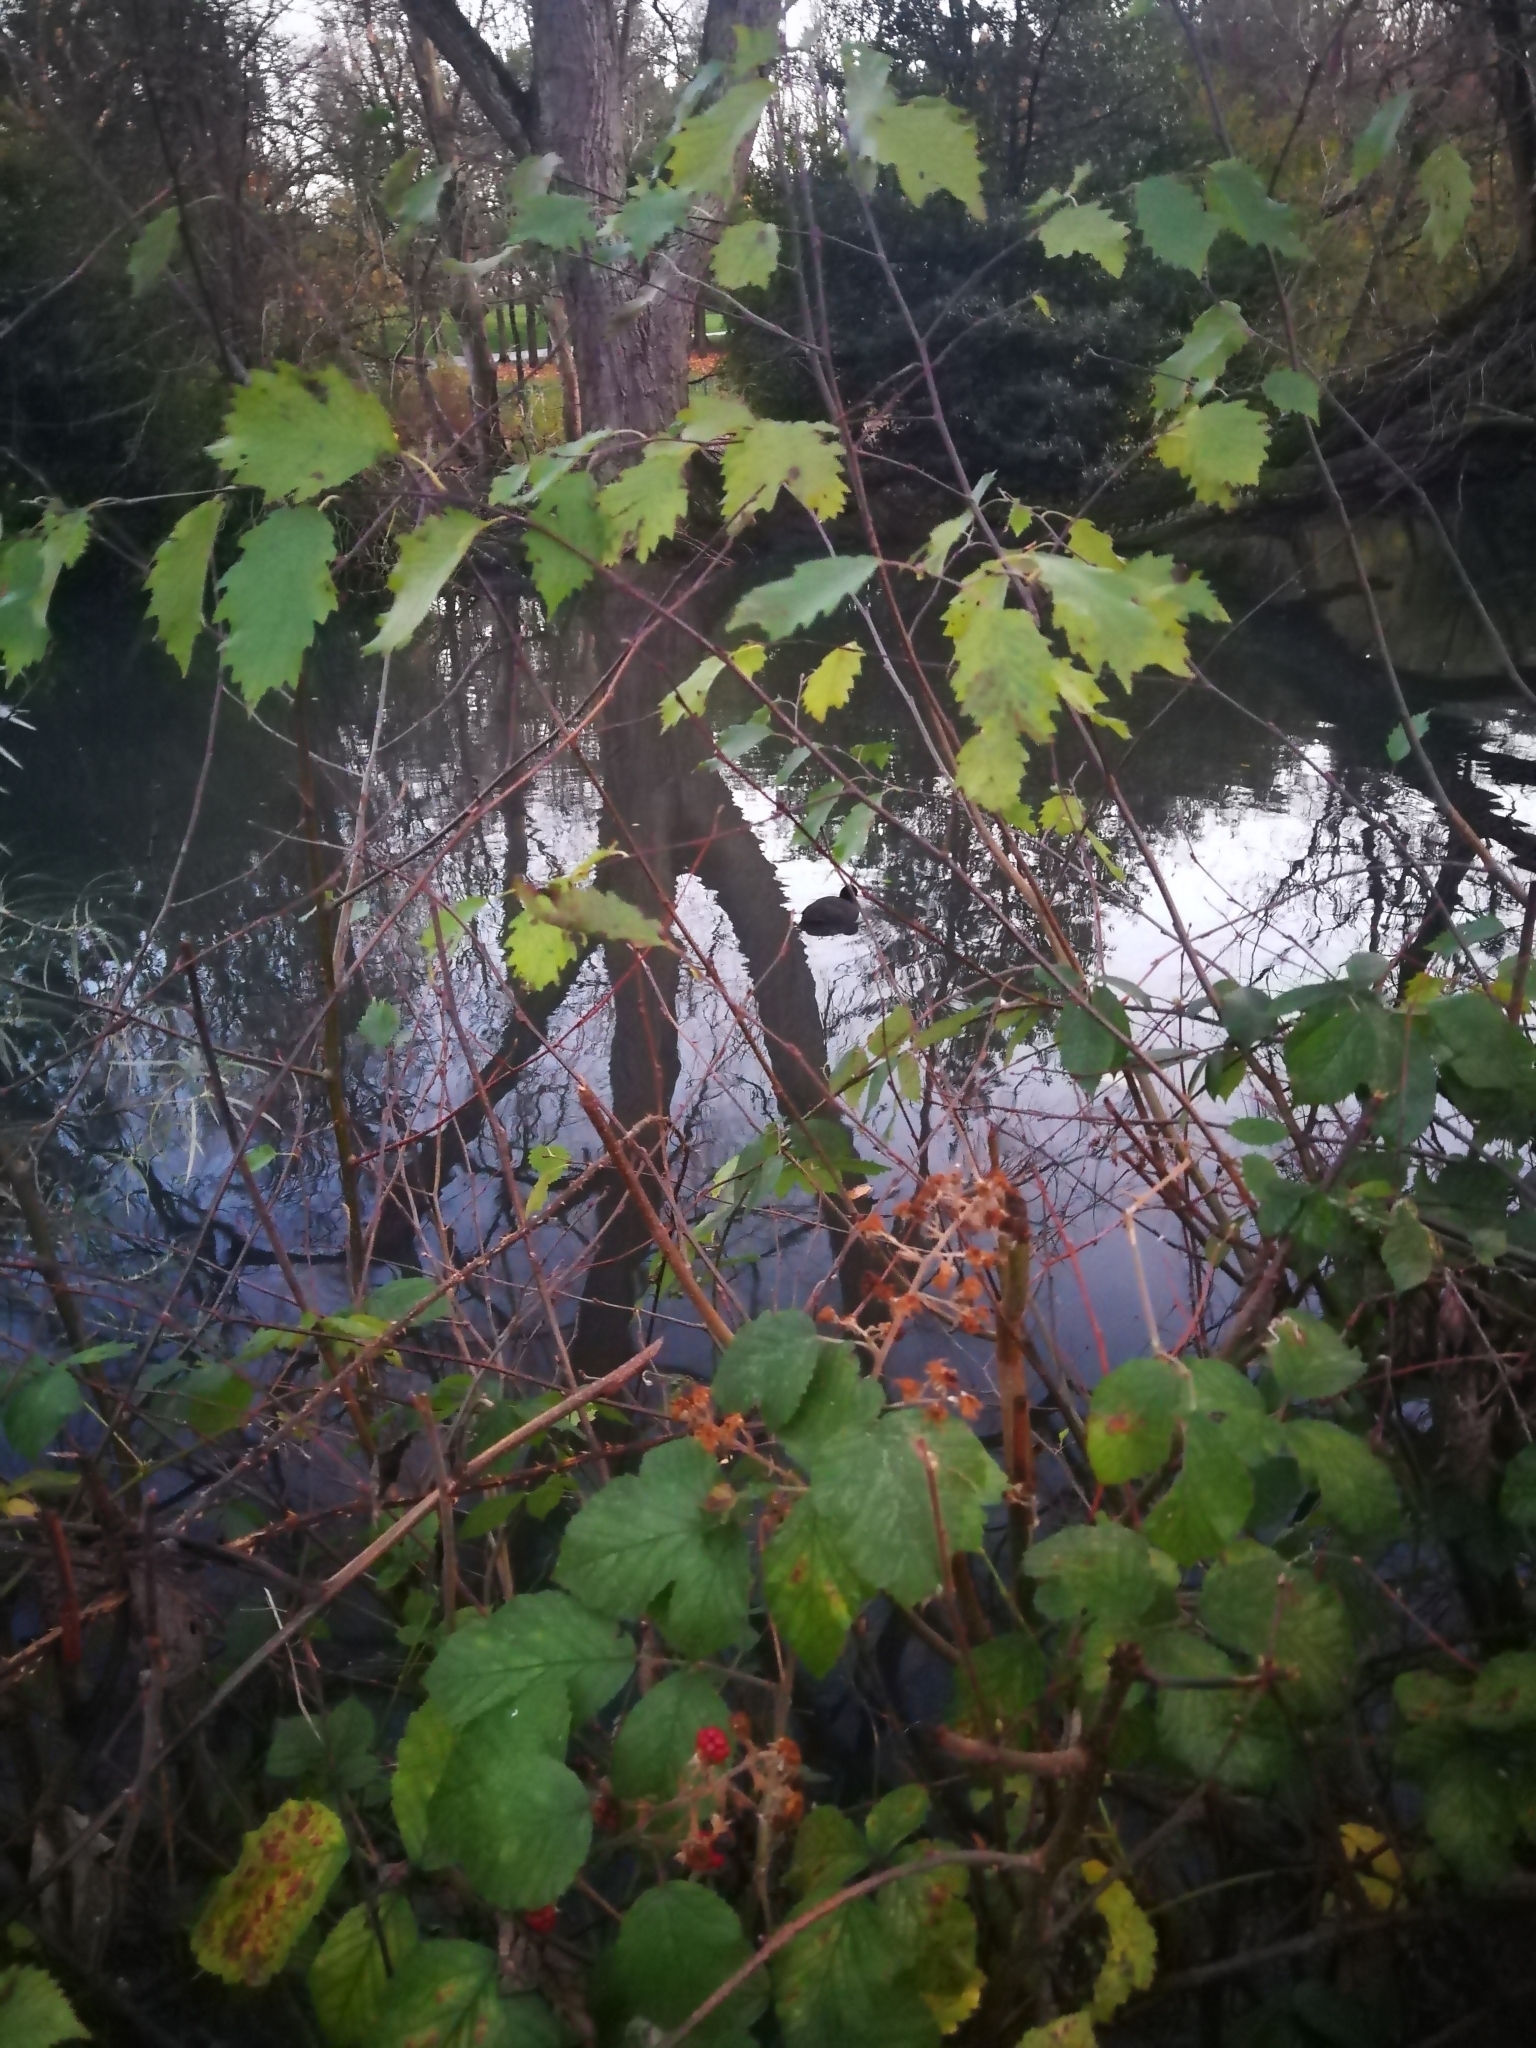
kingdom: Animalia
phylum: Chordata
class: Aves
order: Gruiformes
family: Rallidae
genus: Fulica
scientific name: Fulica atra
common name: Eurasian coot
